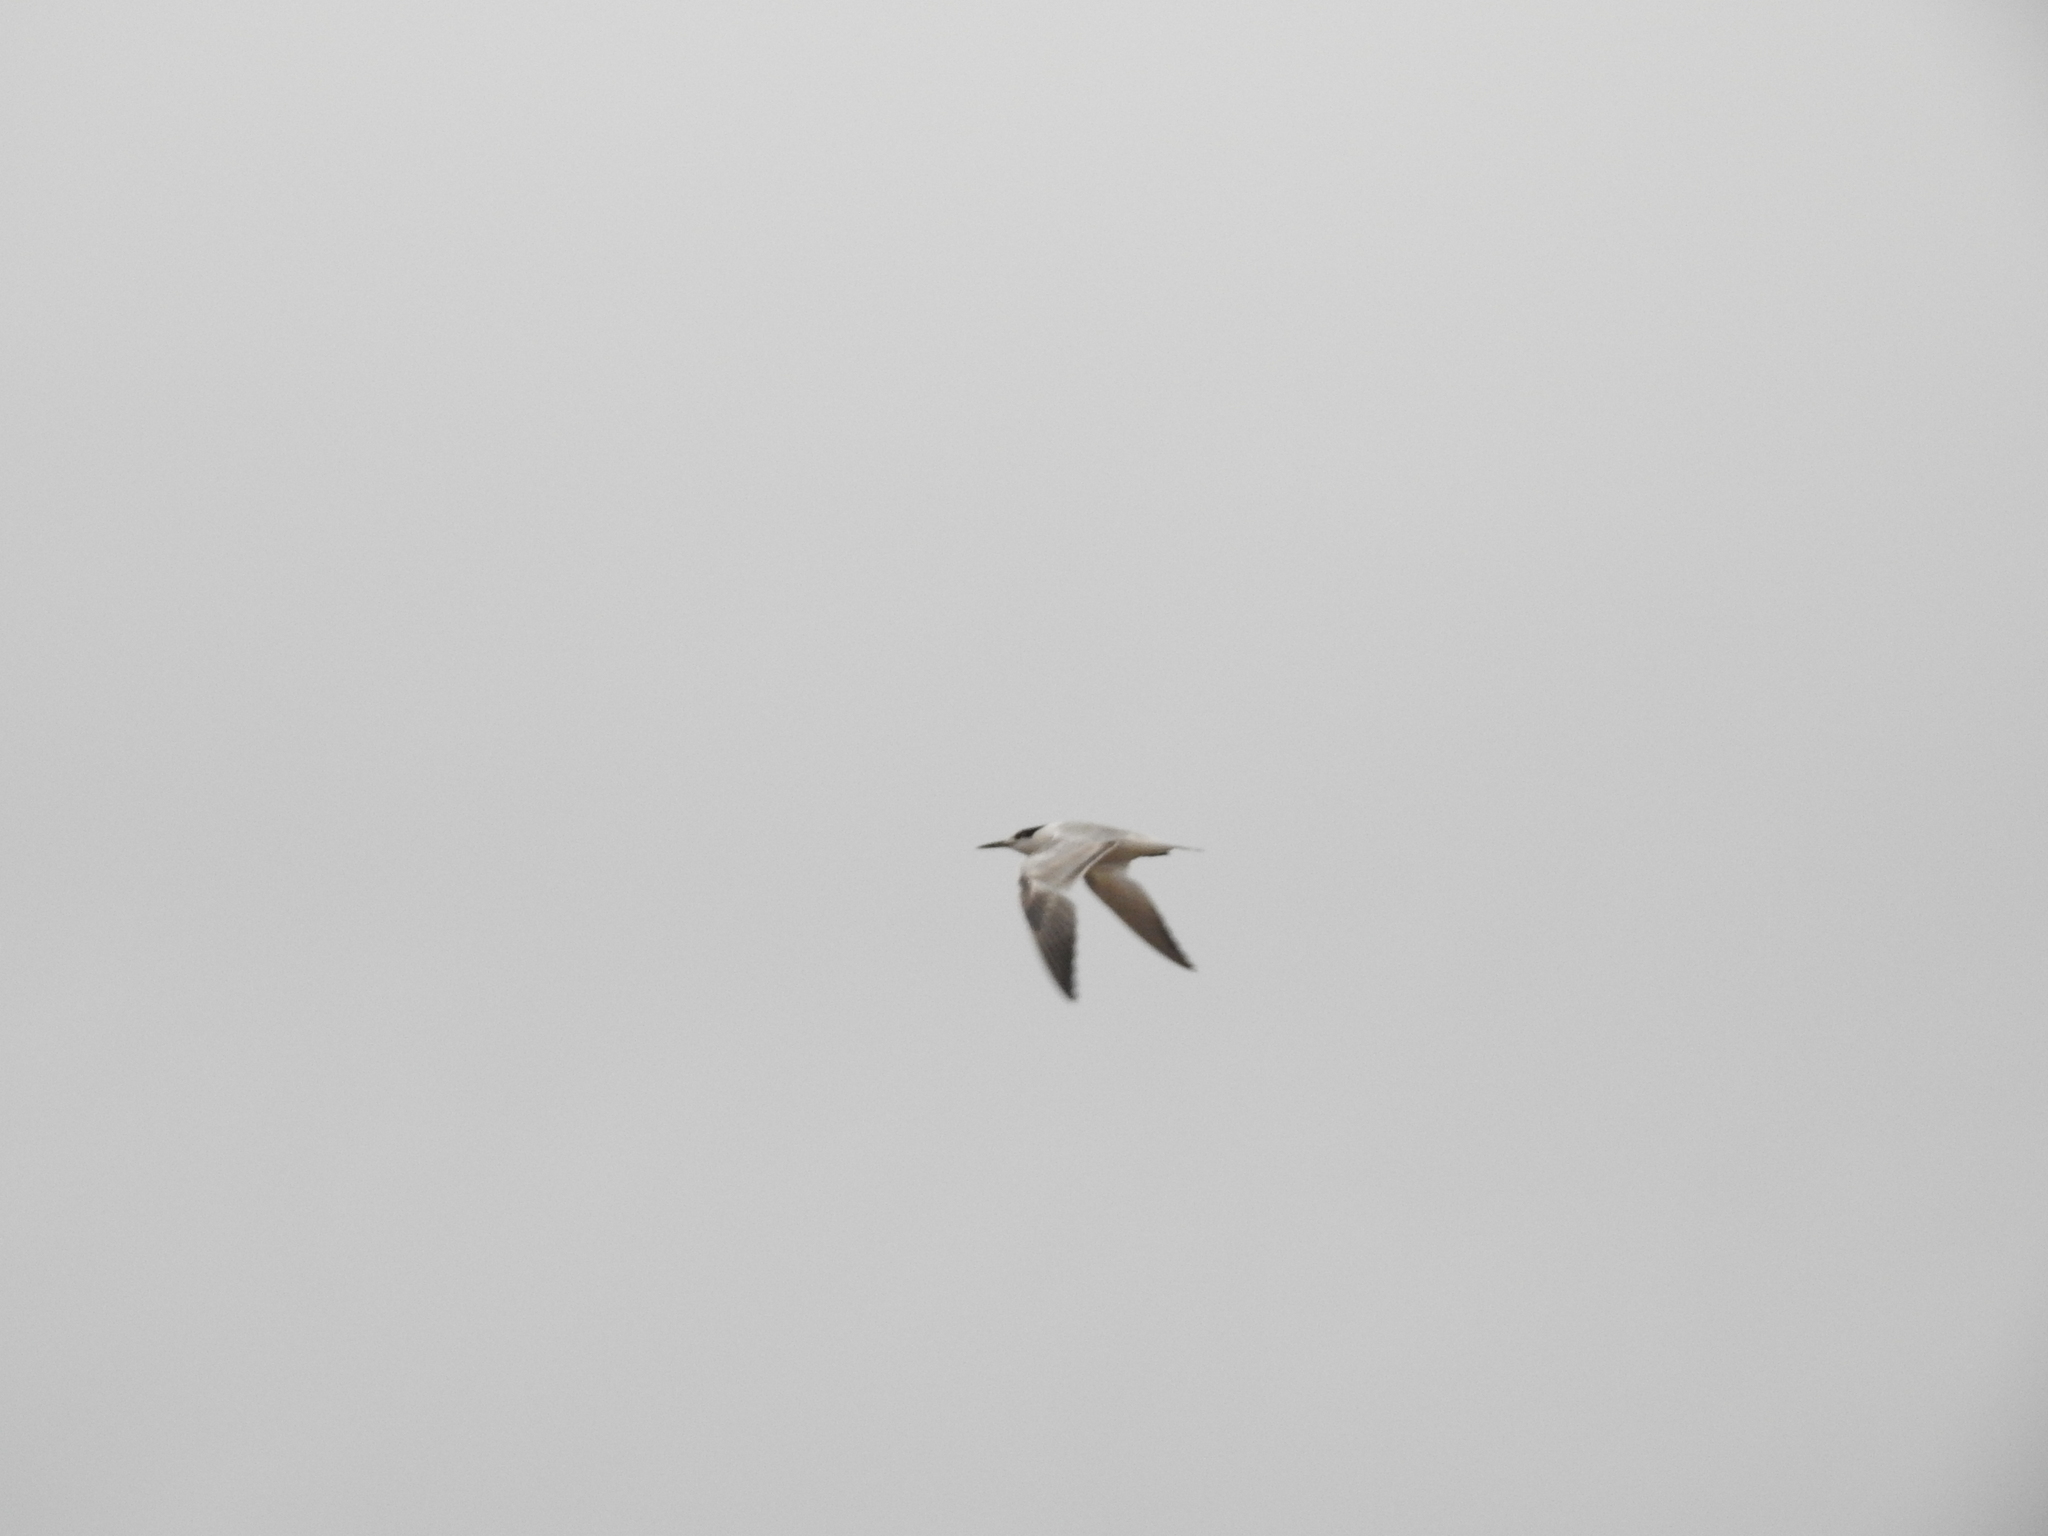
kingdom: Animalia
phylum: Chordata
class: Aves
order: Charadriiformes
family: Laridae
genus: Thalasseus
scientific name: Thalasseus sandvicensis
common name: Sandwich tern
